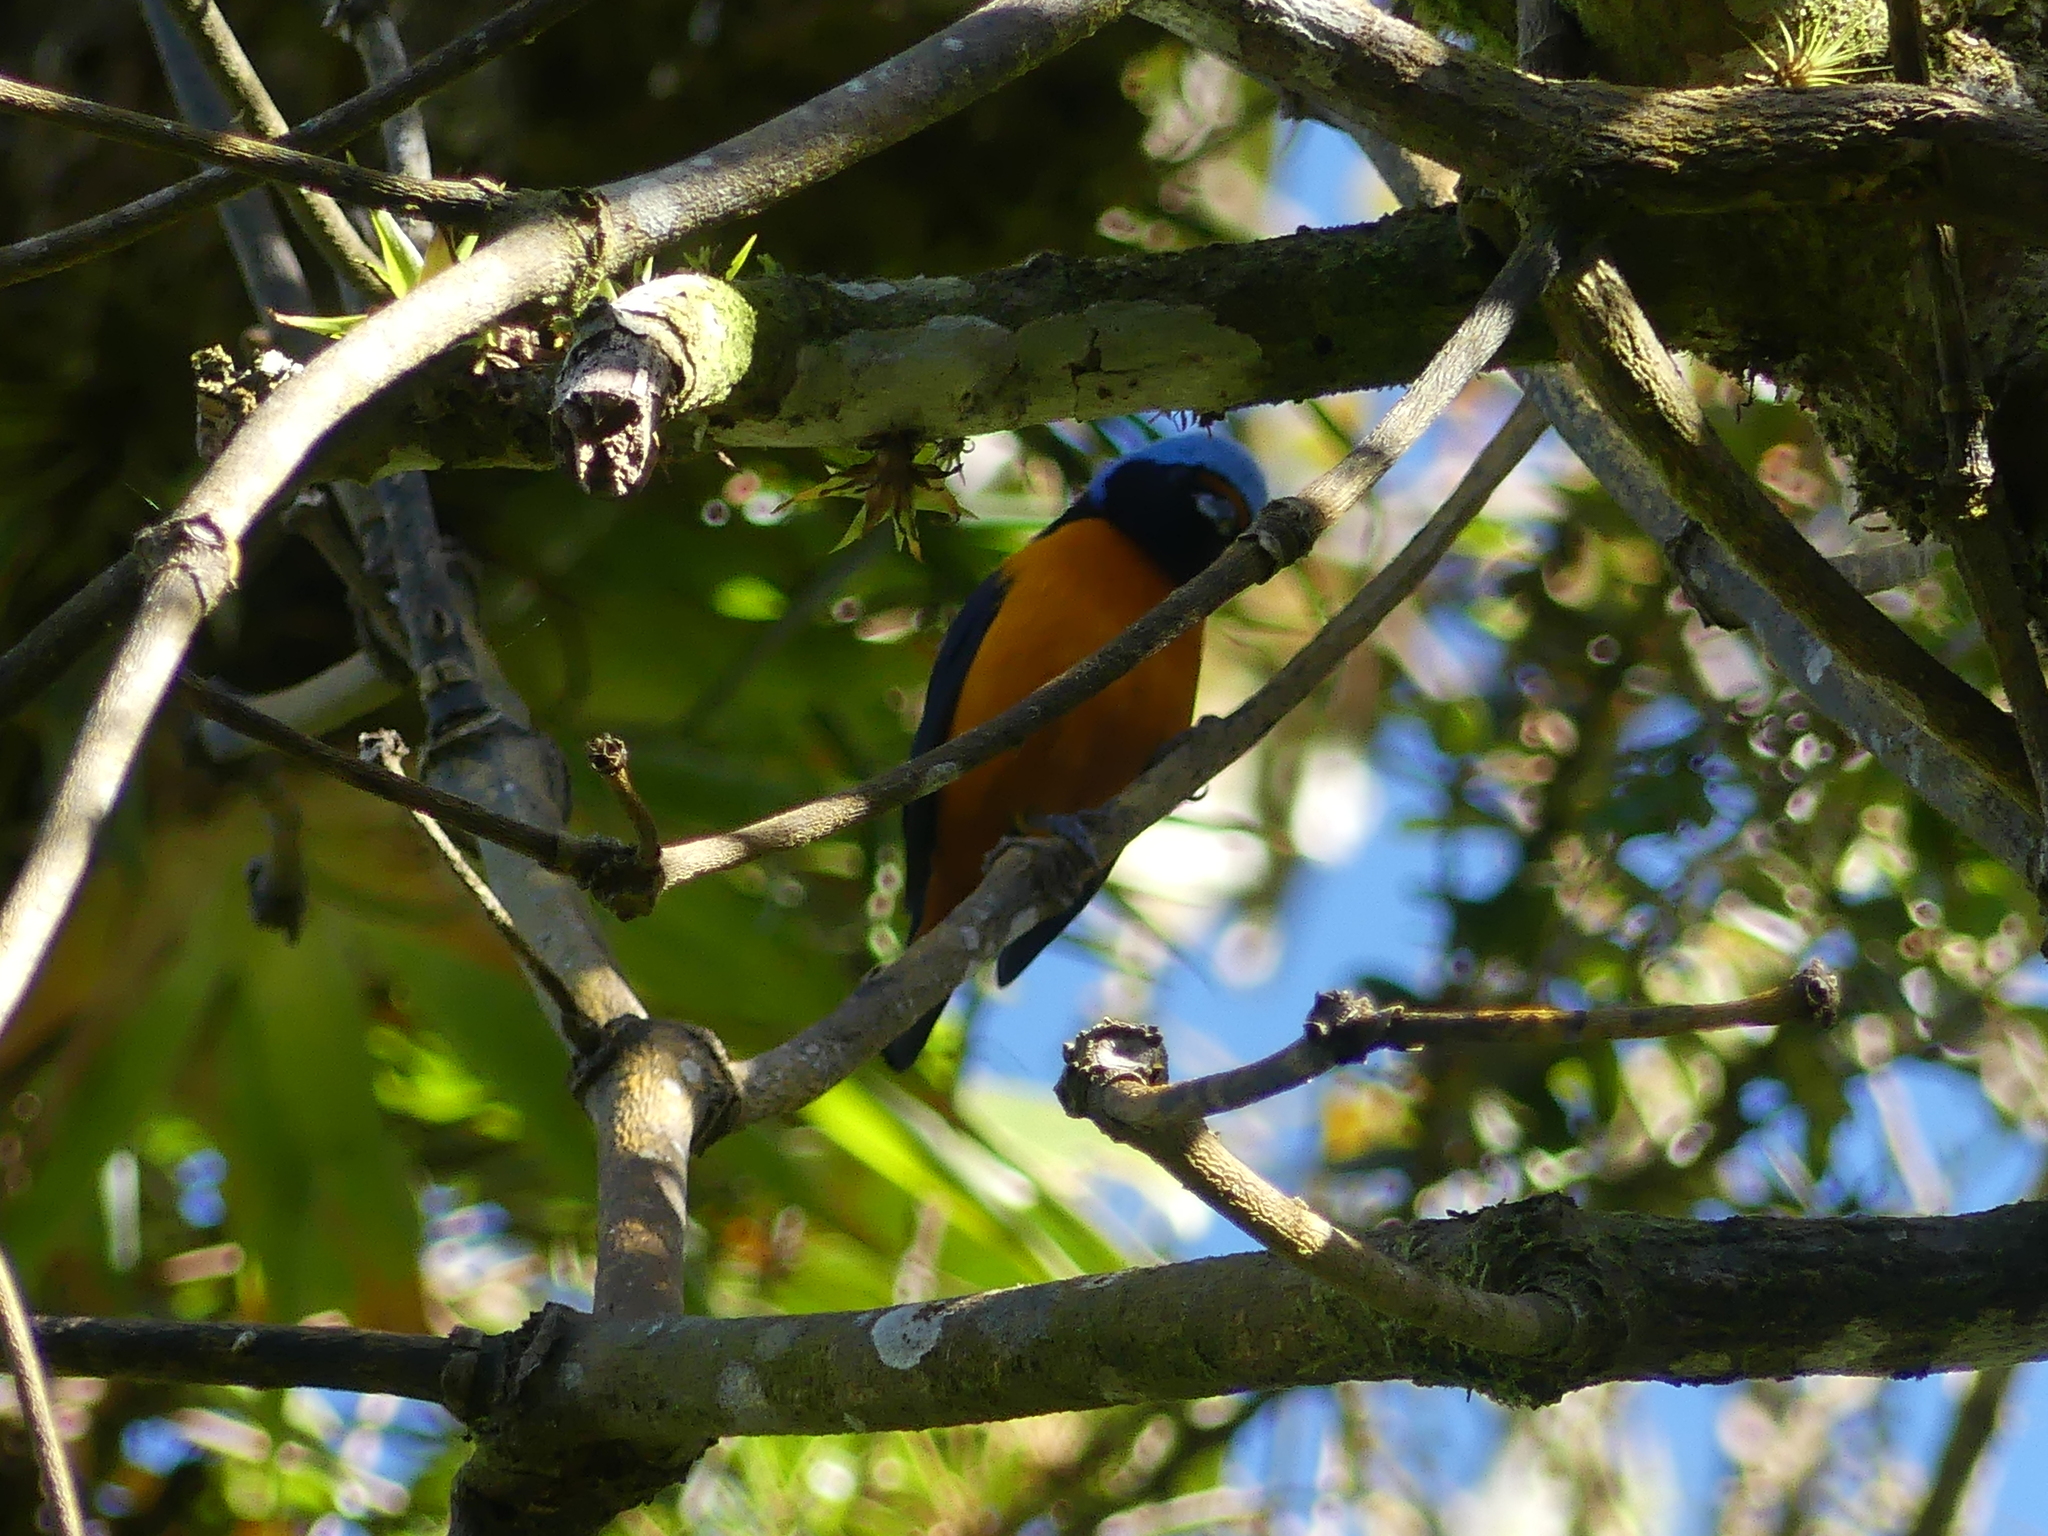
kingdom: Animalia
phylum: Chordata
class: Aves
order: Passeriformes
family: Fringillidae
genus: Euphonia
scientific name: Euphonia elegantissima
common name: Elegant euphonia
